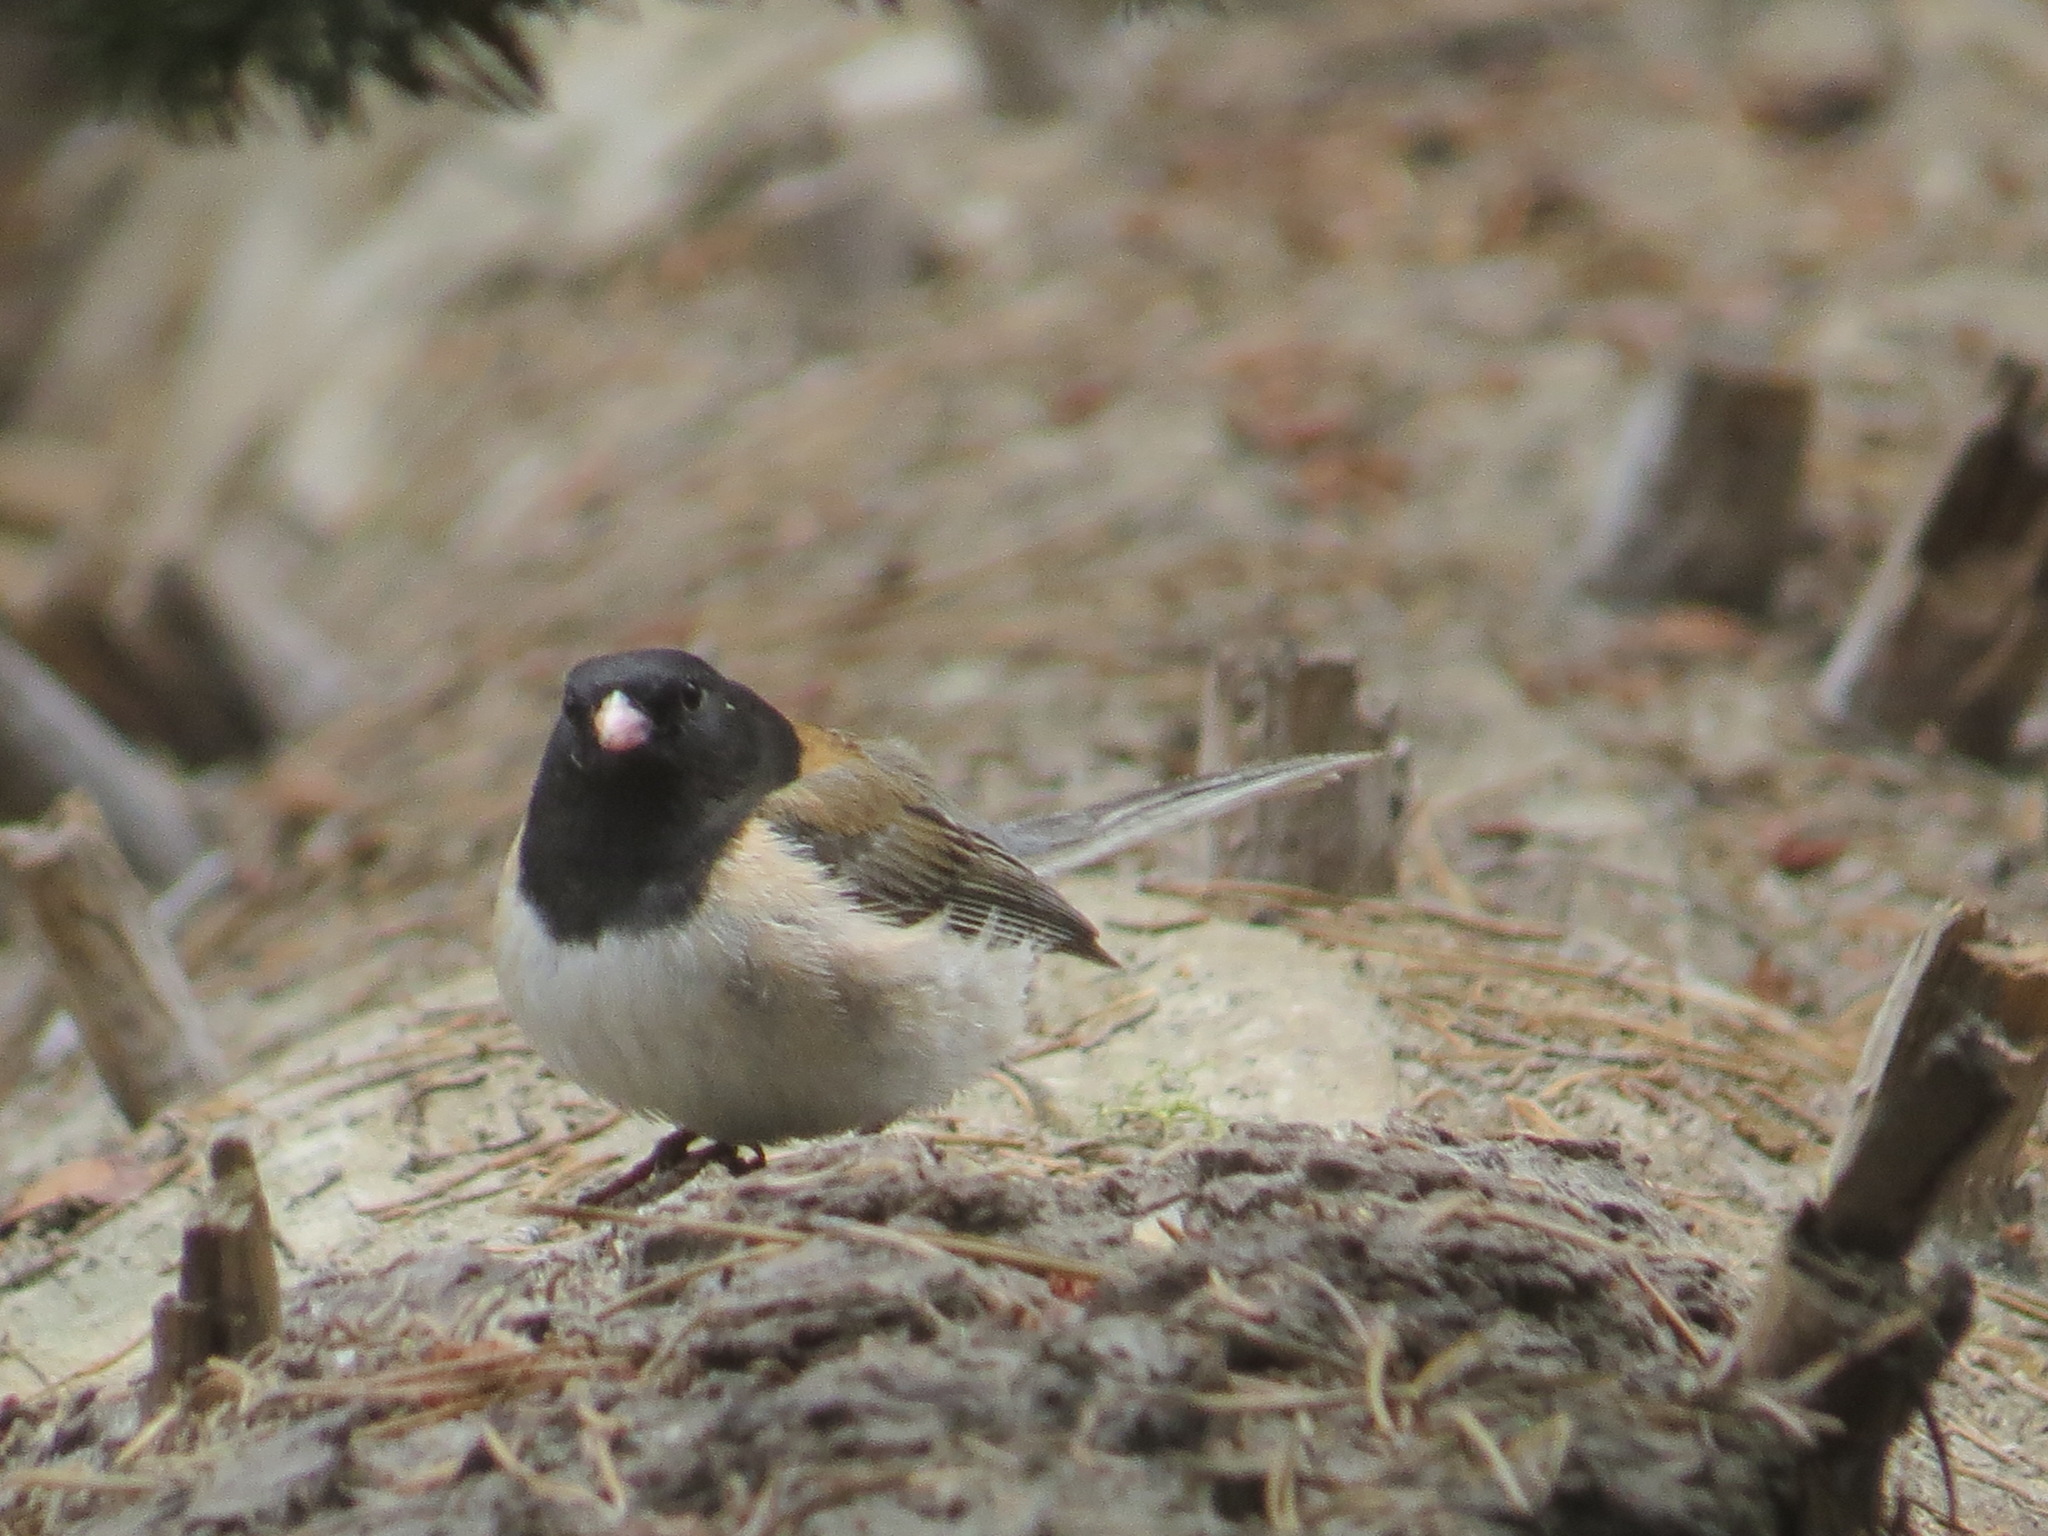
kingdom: Animalia
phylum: Chordata
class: Aves
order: Passeriformes
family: Passerellidae
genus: Junco
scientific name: Junco hyemalis
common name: Dark-eyed junco
